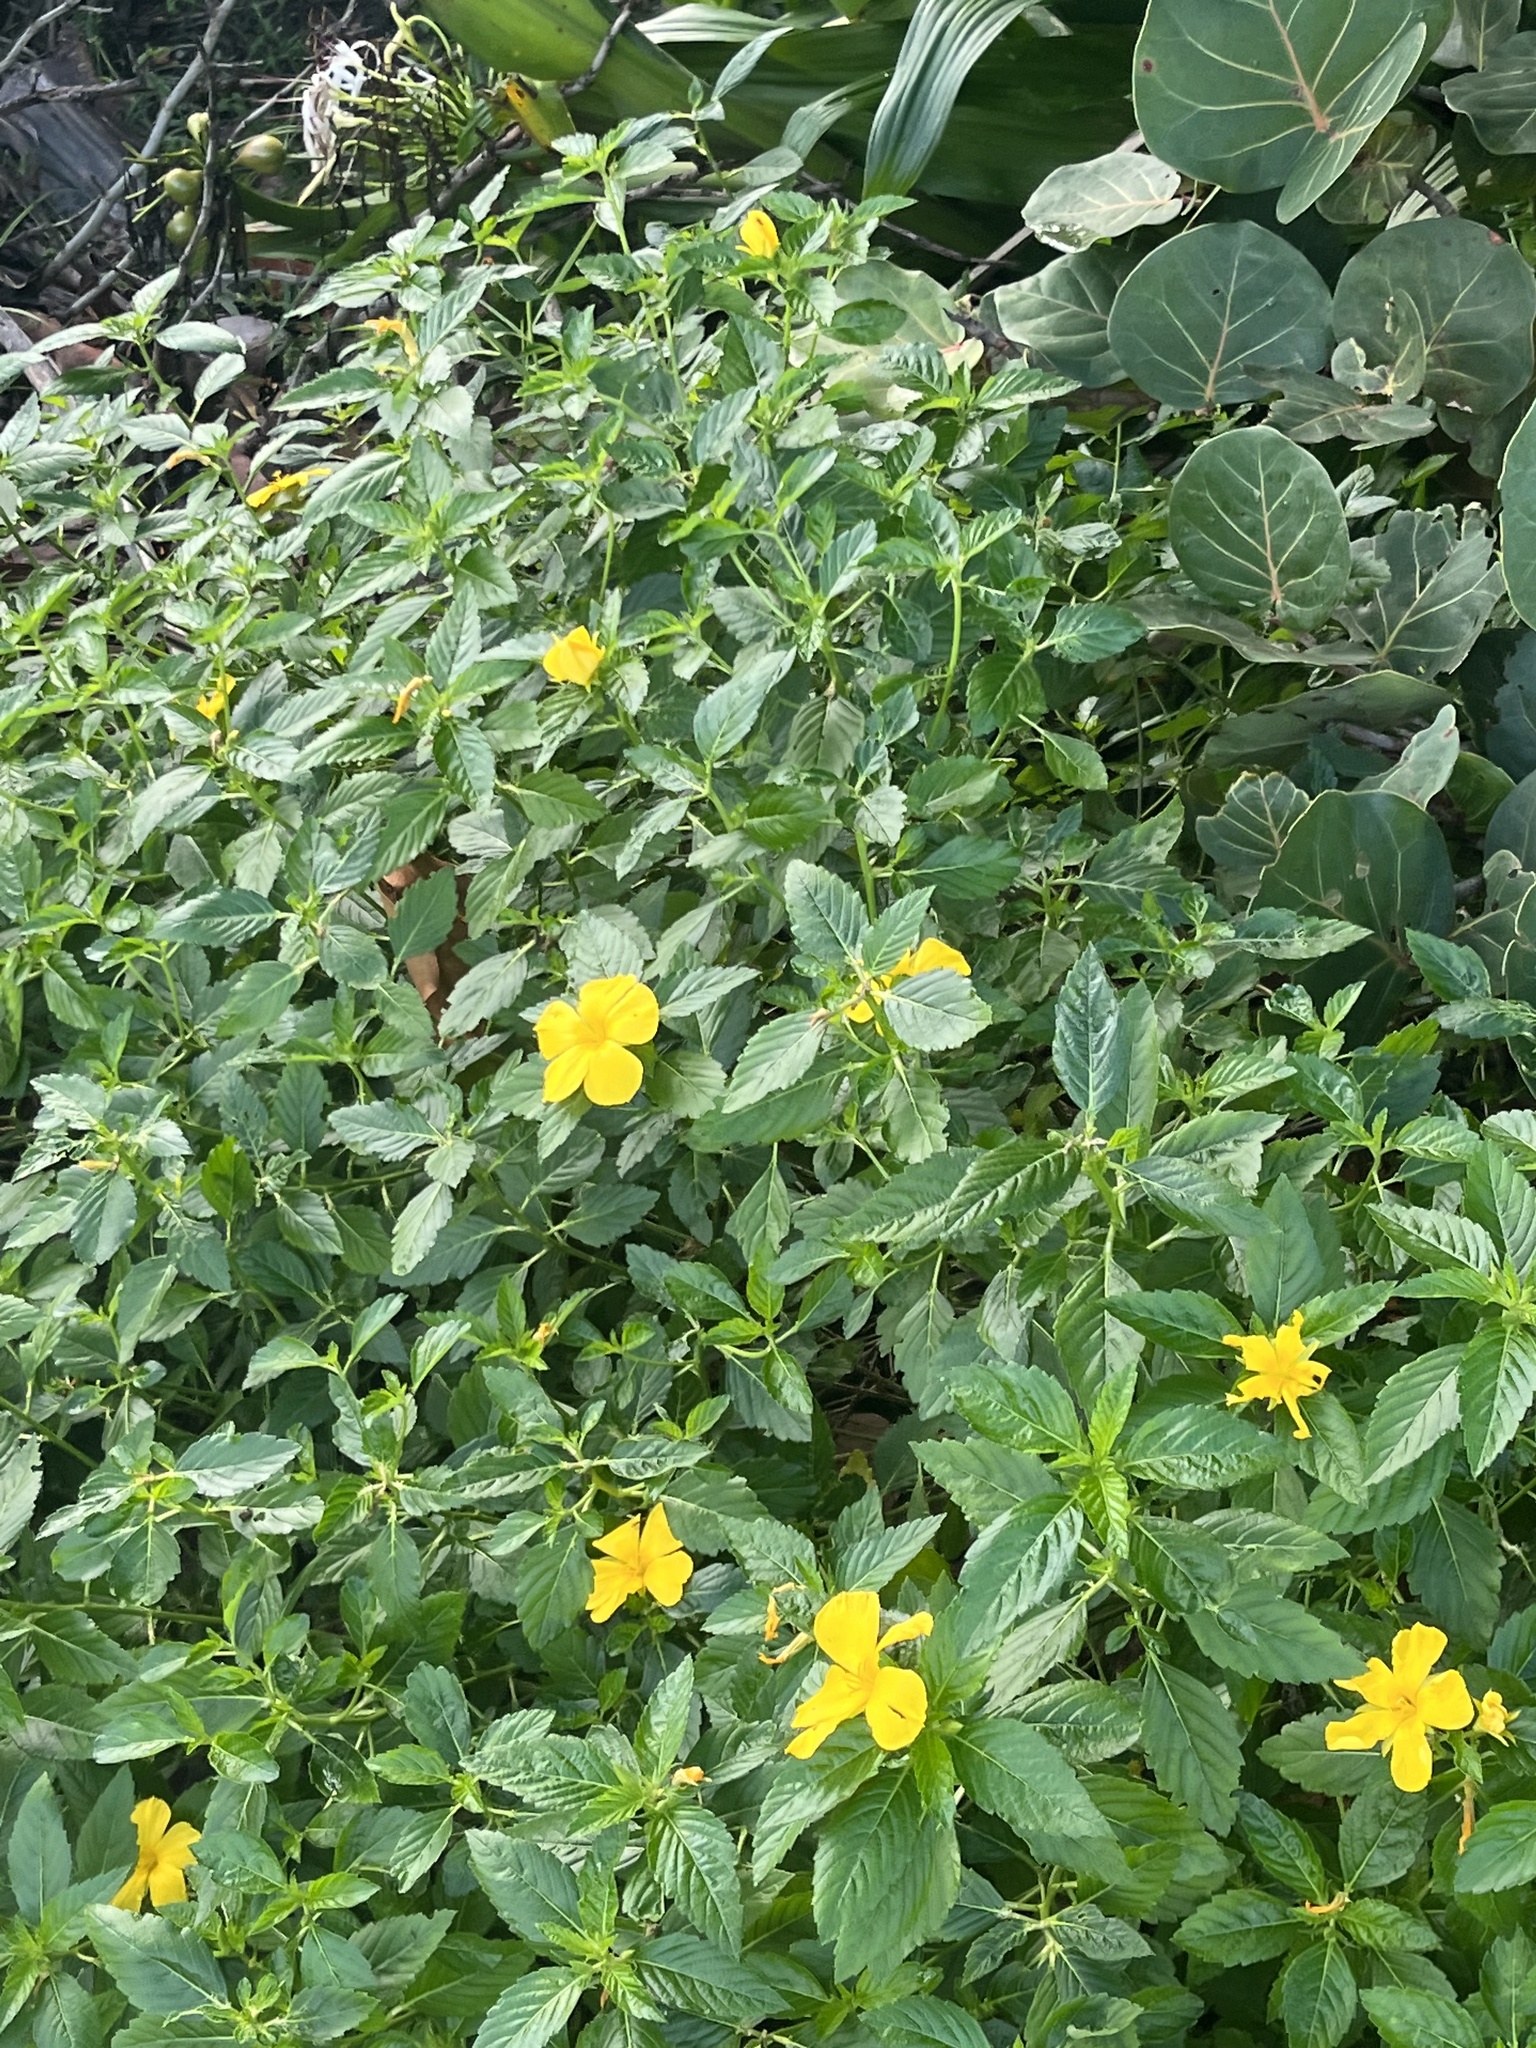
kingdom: Plantae
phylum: Tracheophyta
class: Magnoliopsida
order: Malpighiales
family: Turneraceae
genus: Turnera
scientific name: Turnera ulmifolia
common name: Ramgoat dashalong
